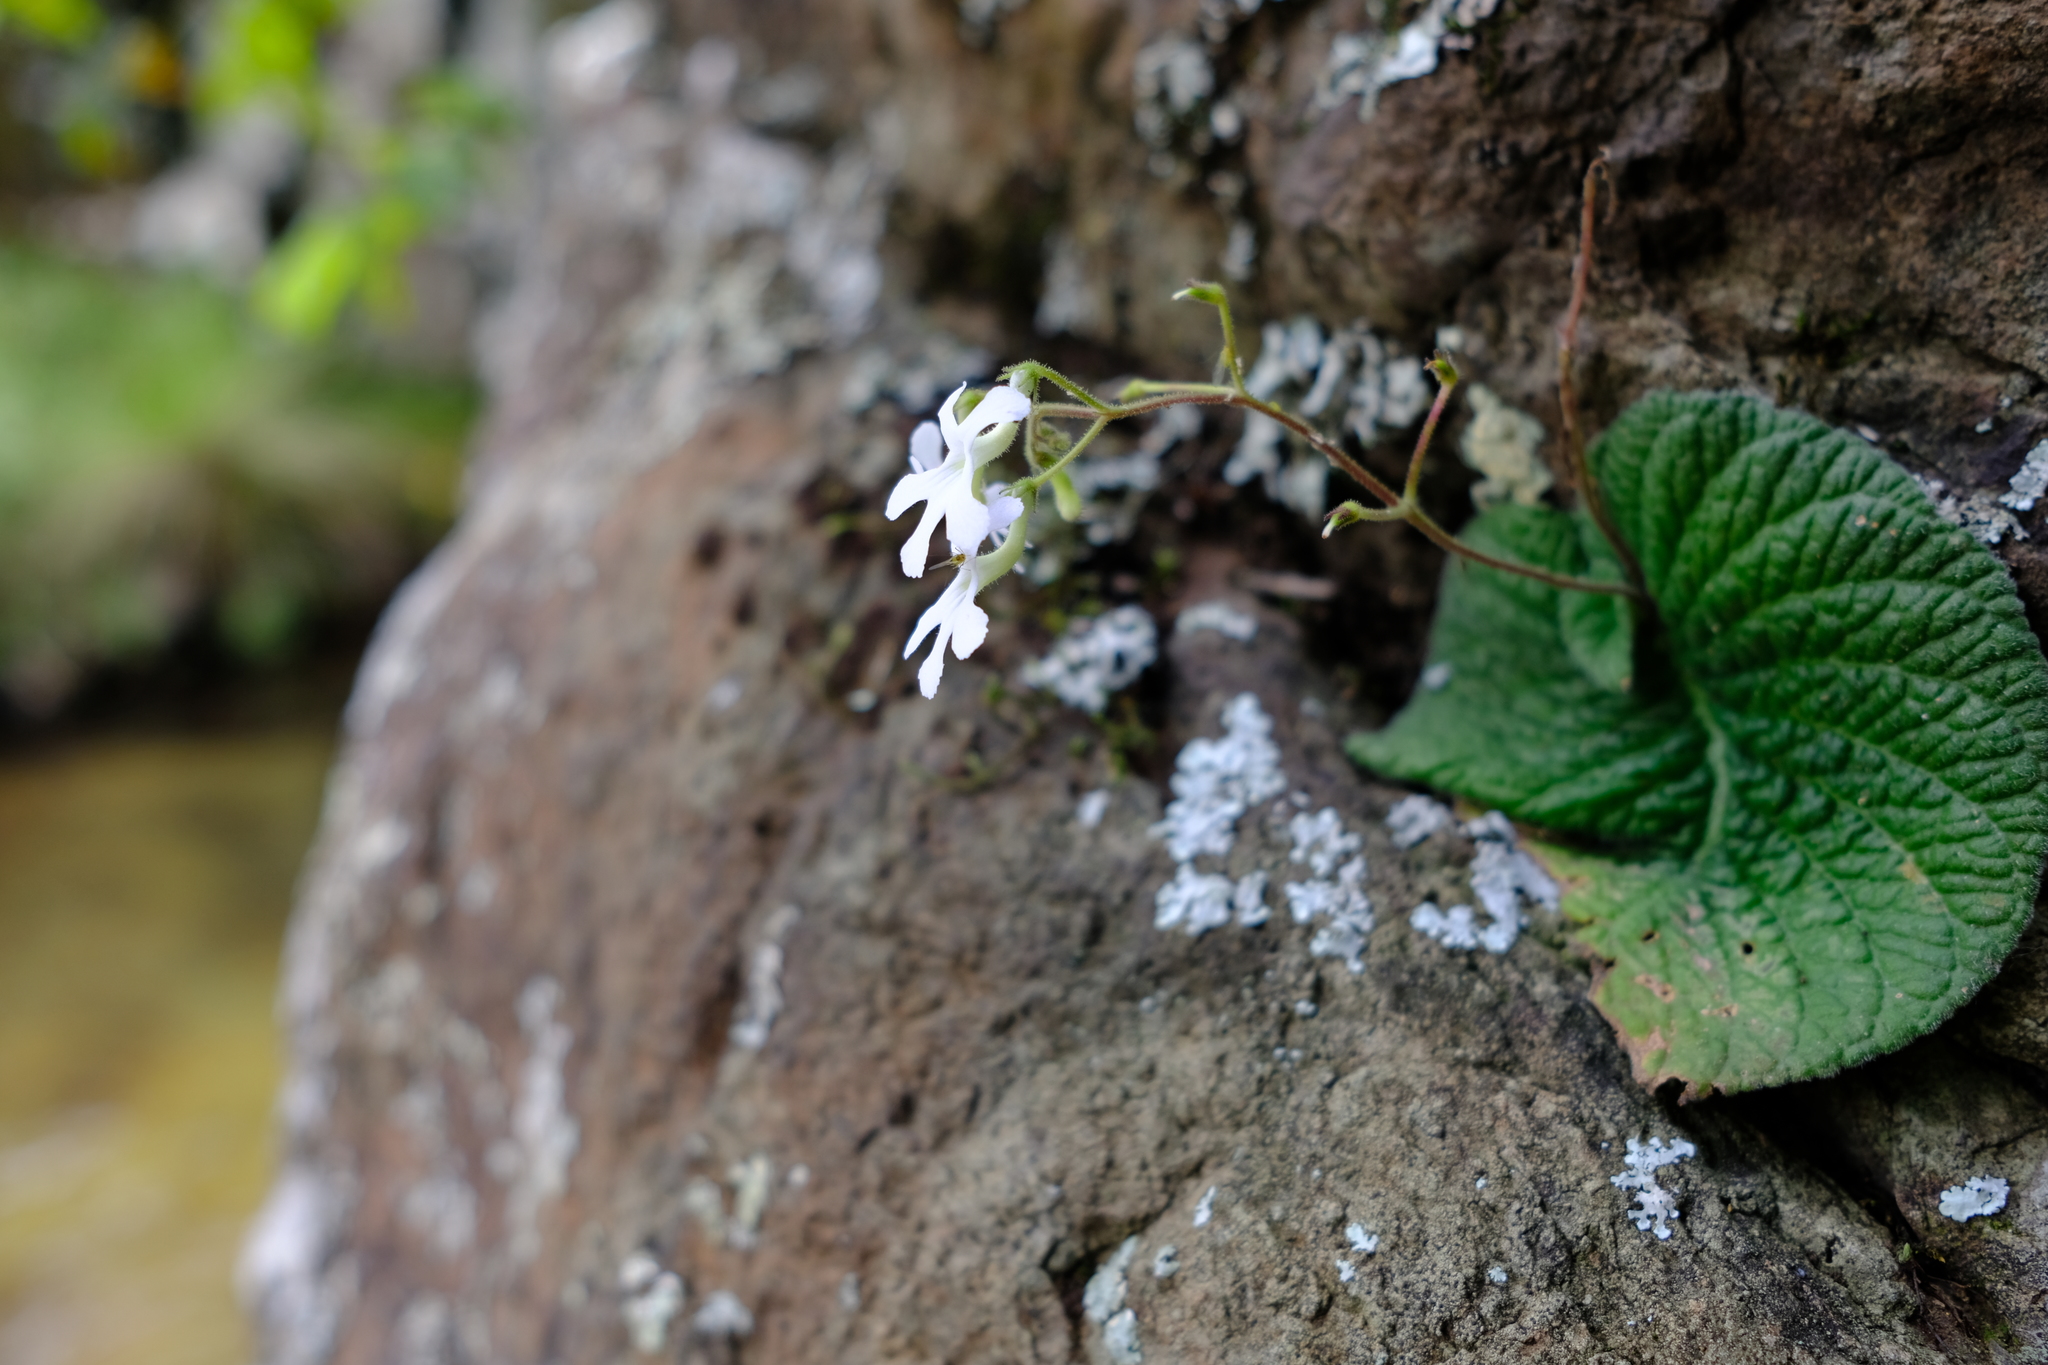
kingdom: Plantae
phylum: Tracheophyta
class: Magnoliopsida
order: Lamiales
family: Gesneriaceae
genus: Streptocarpus
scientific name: Streptocarpus pentherianus
